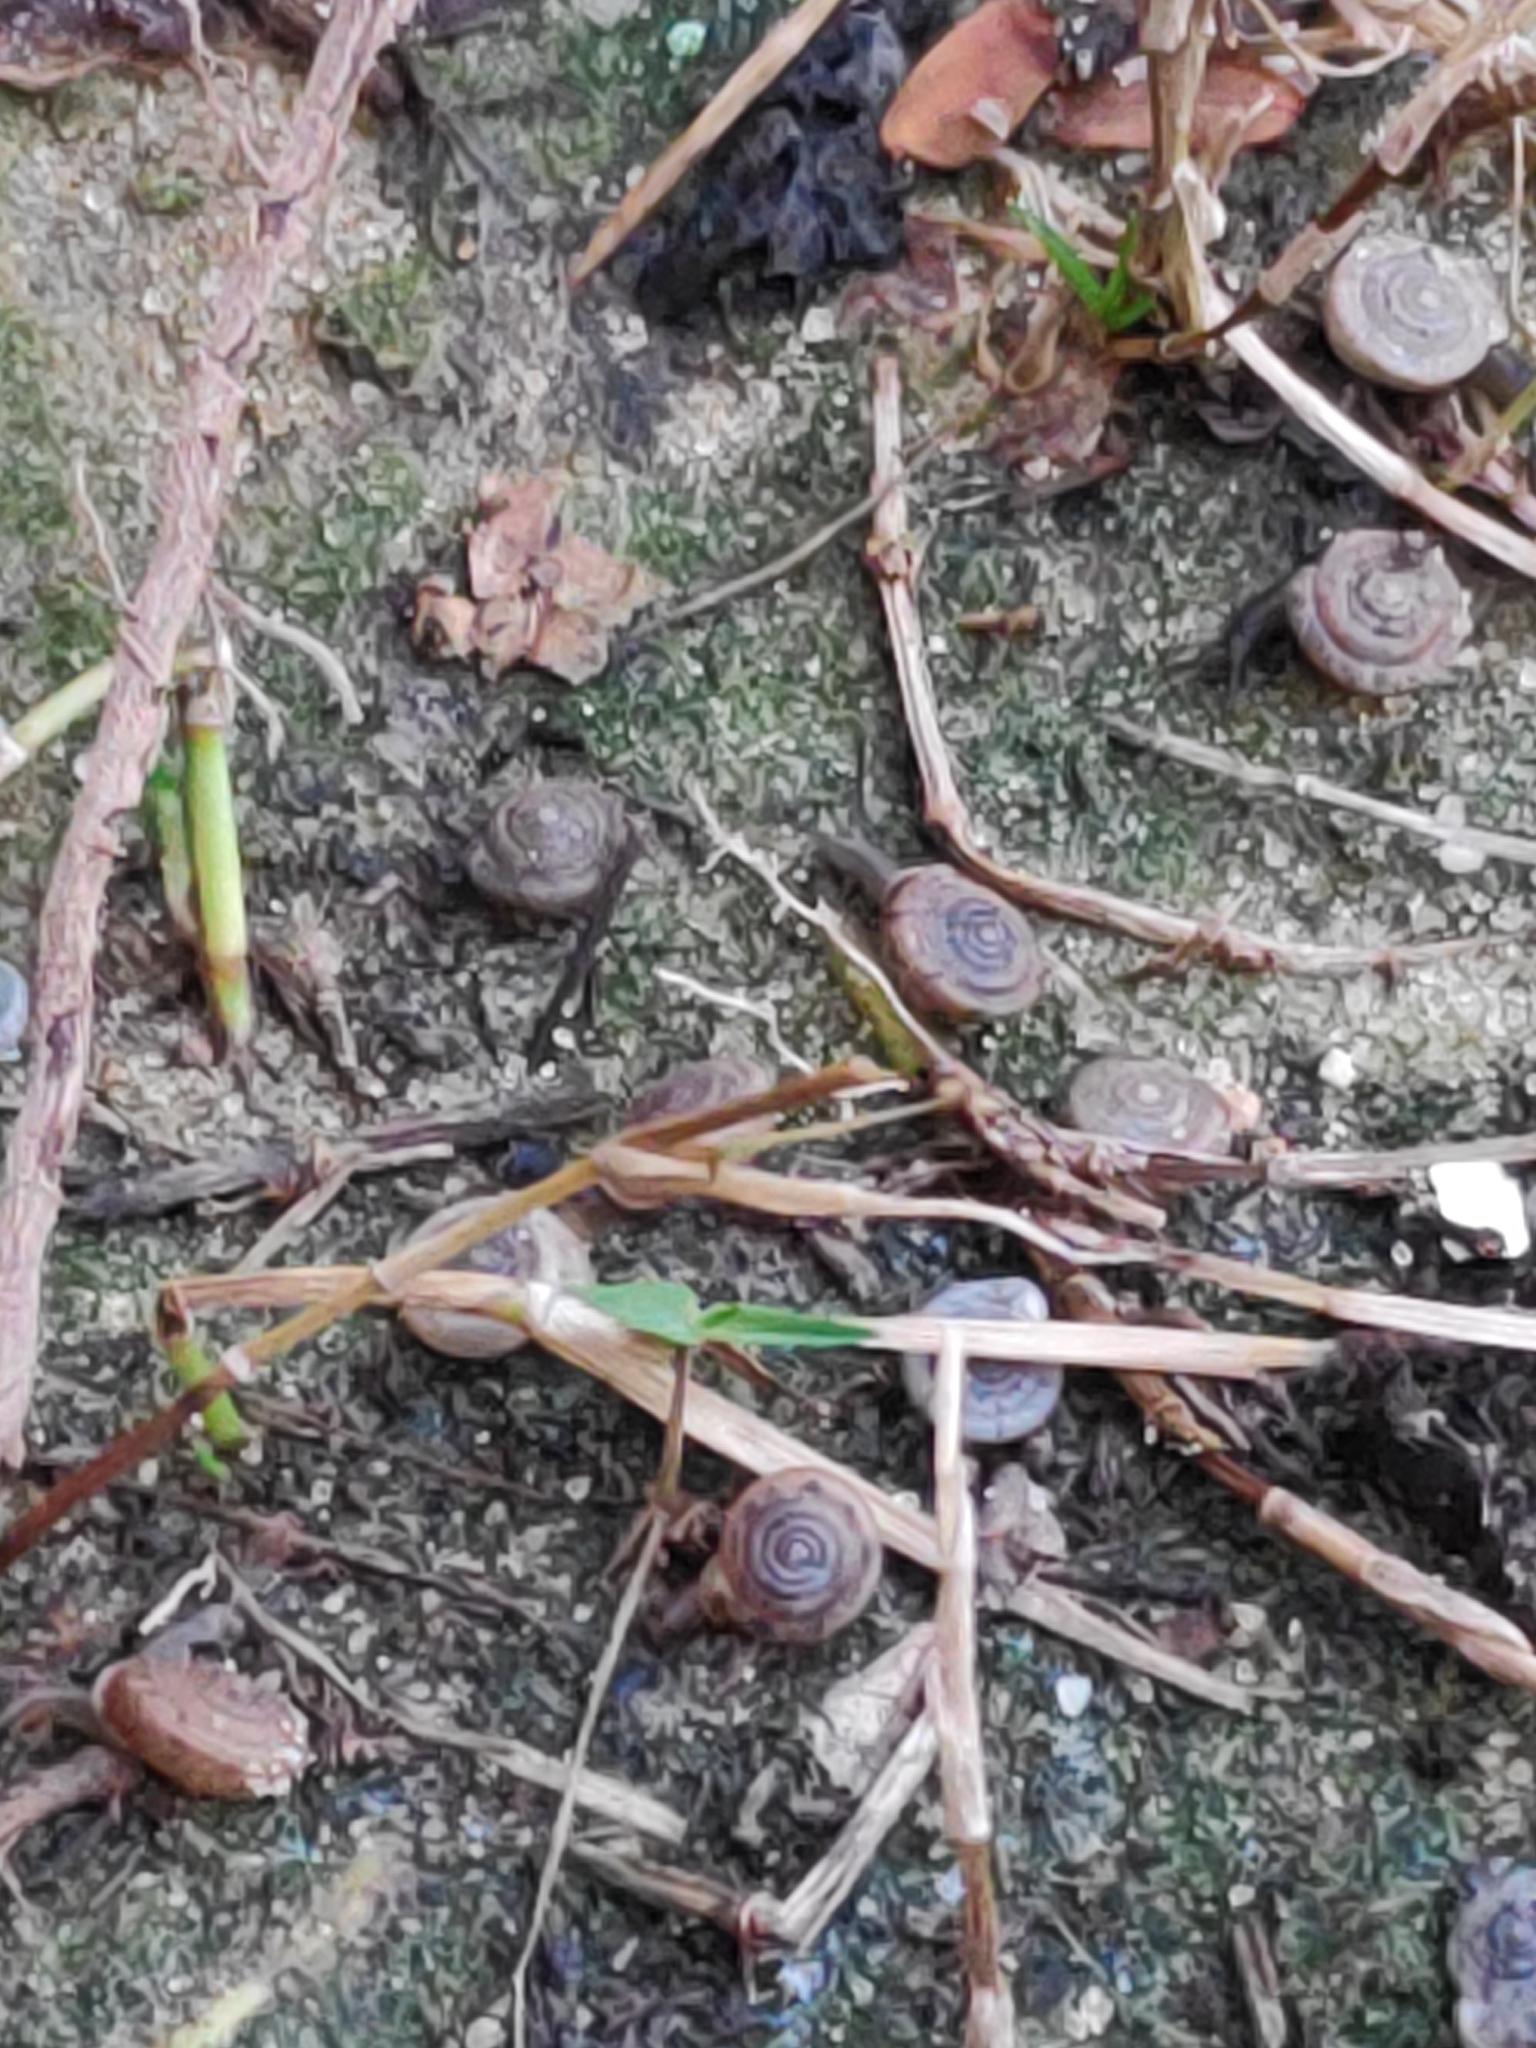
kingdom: Animalia
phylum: Mollusca
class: Gastropoda
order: Stylommatophora
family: Polygyridae
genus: Polygyra
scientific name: Polygyra cereolus
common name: Southern flatcone snail
